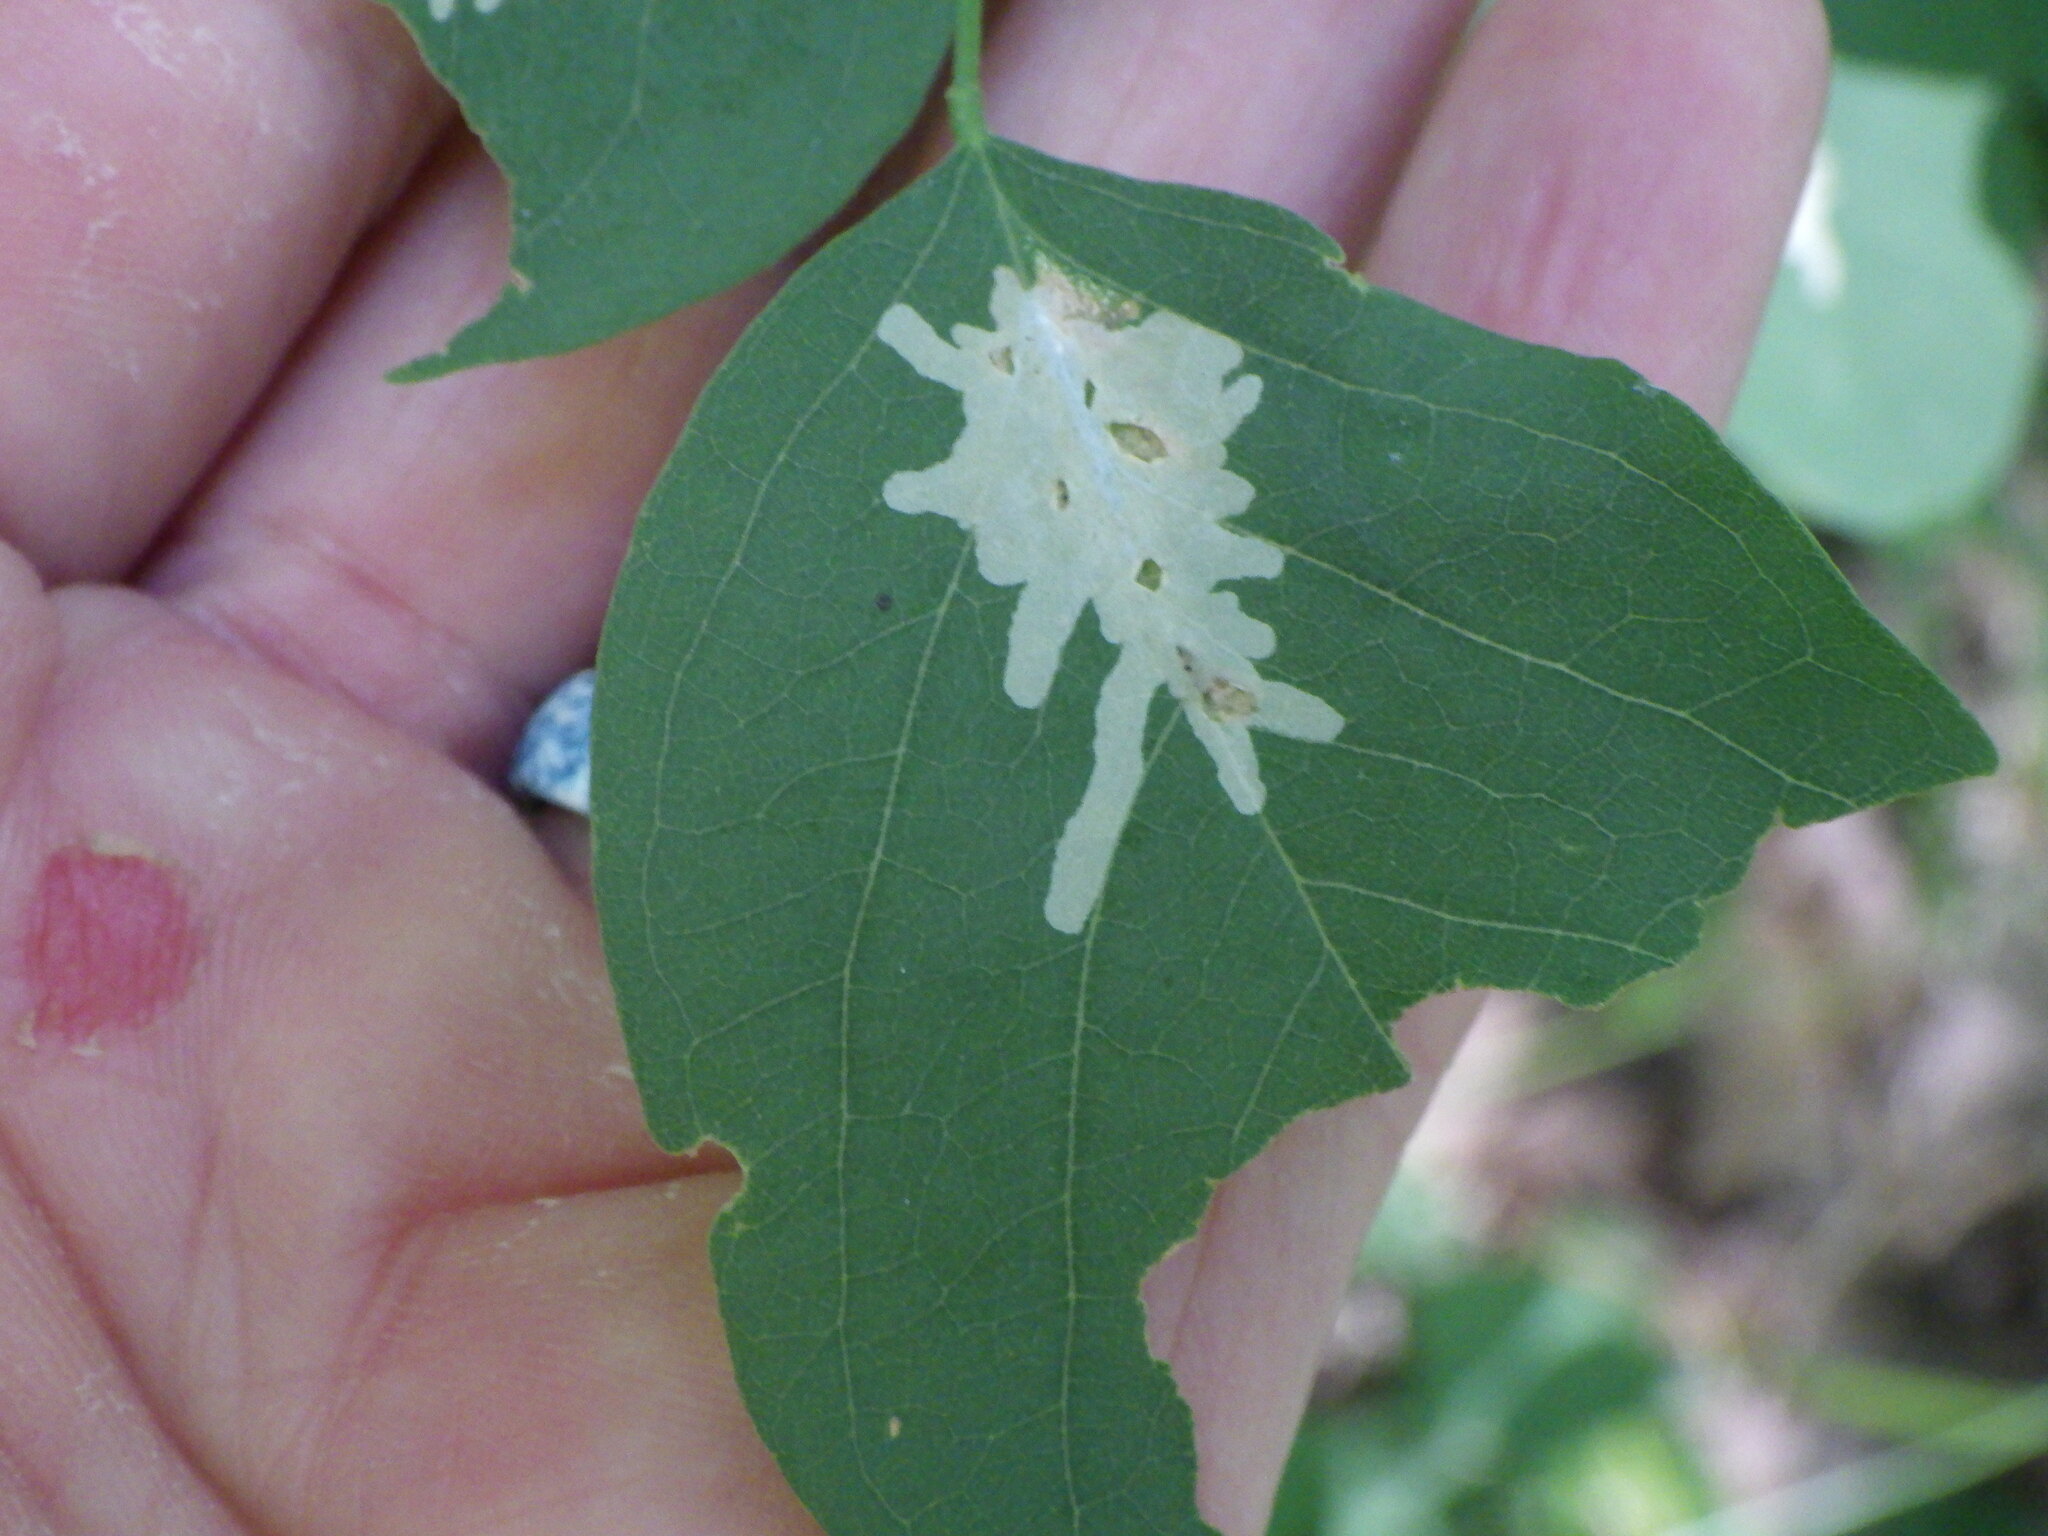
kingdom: Animalia
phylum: Arthropoda
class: Insecta
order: Lepidoptera
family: Gracillariidae
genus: Parectopa
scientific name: Parectopa robiniella
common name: Locust digitate leafminer
